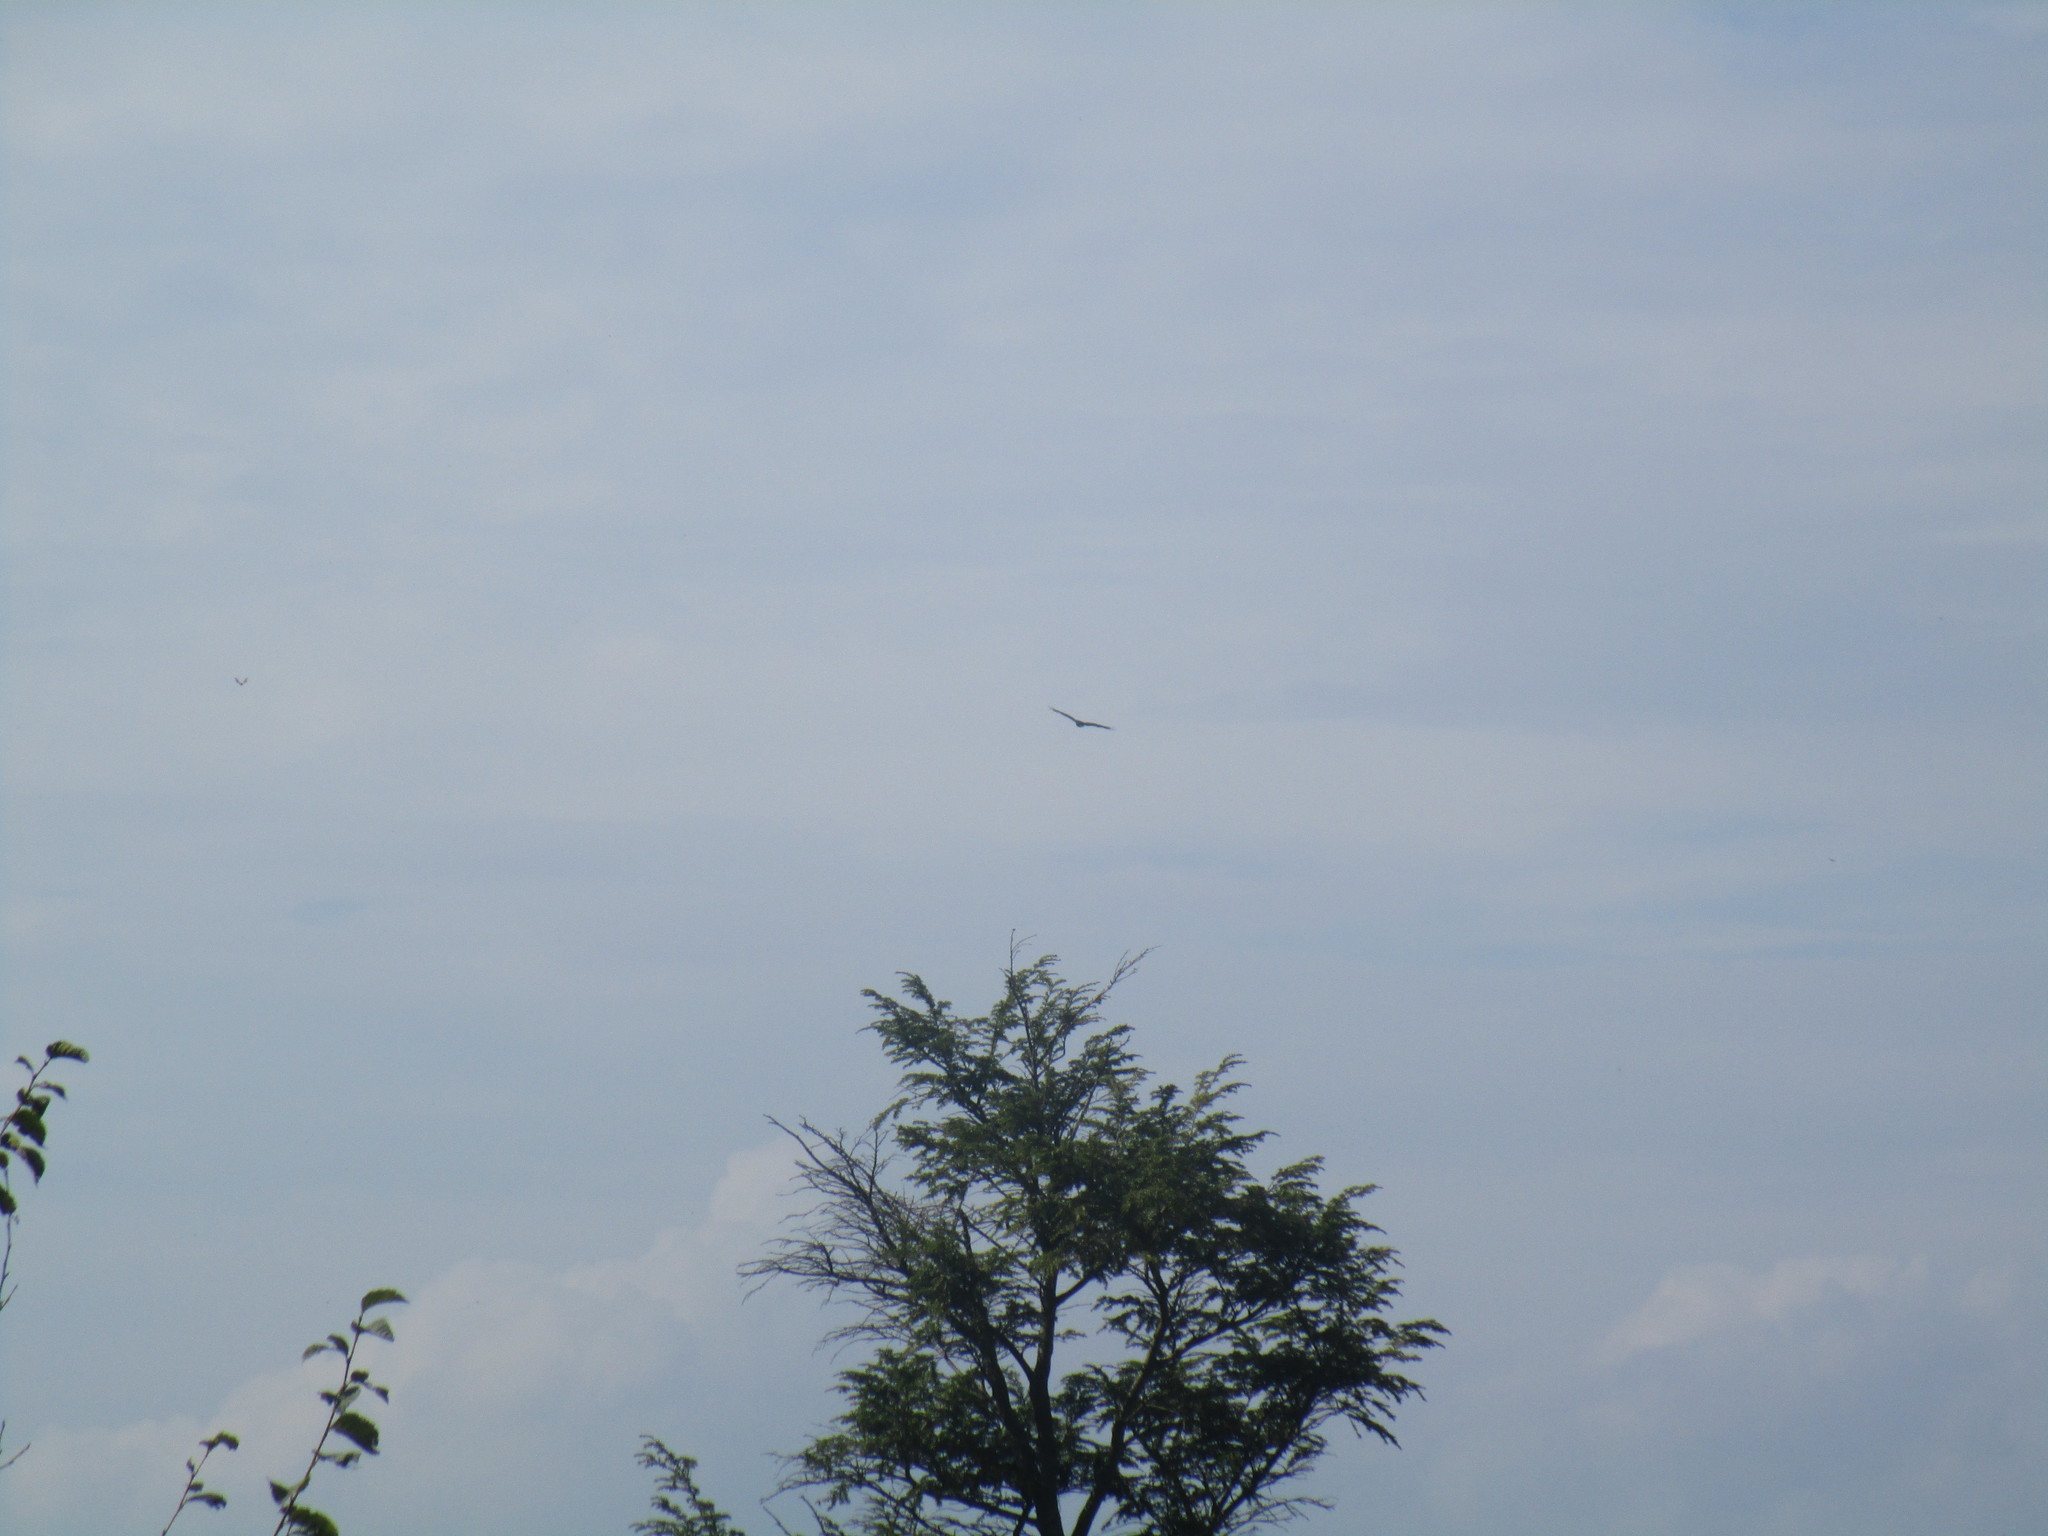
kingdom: Animalia
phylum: Chordata
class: Aves
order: Accipitriformes
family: Cathartidae
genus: Cathartes
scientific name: Cathartes aura
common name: Turkey vulture
